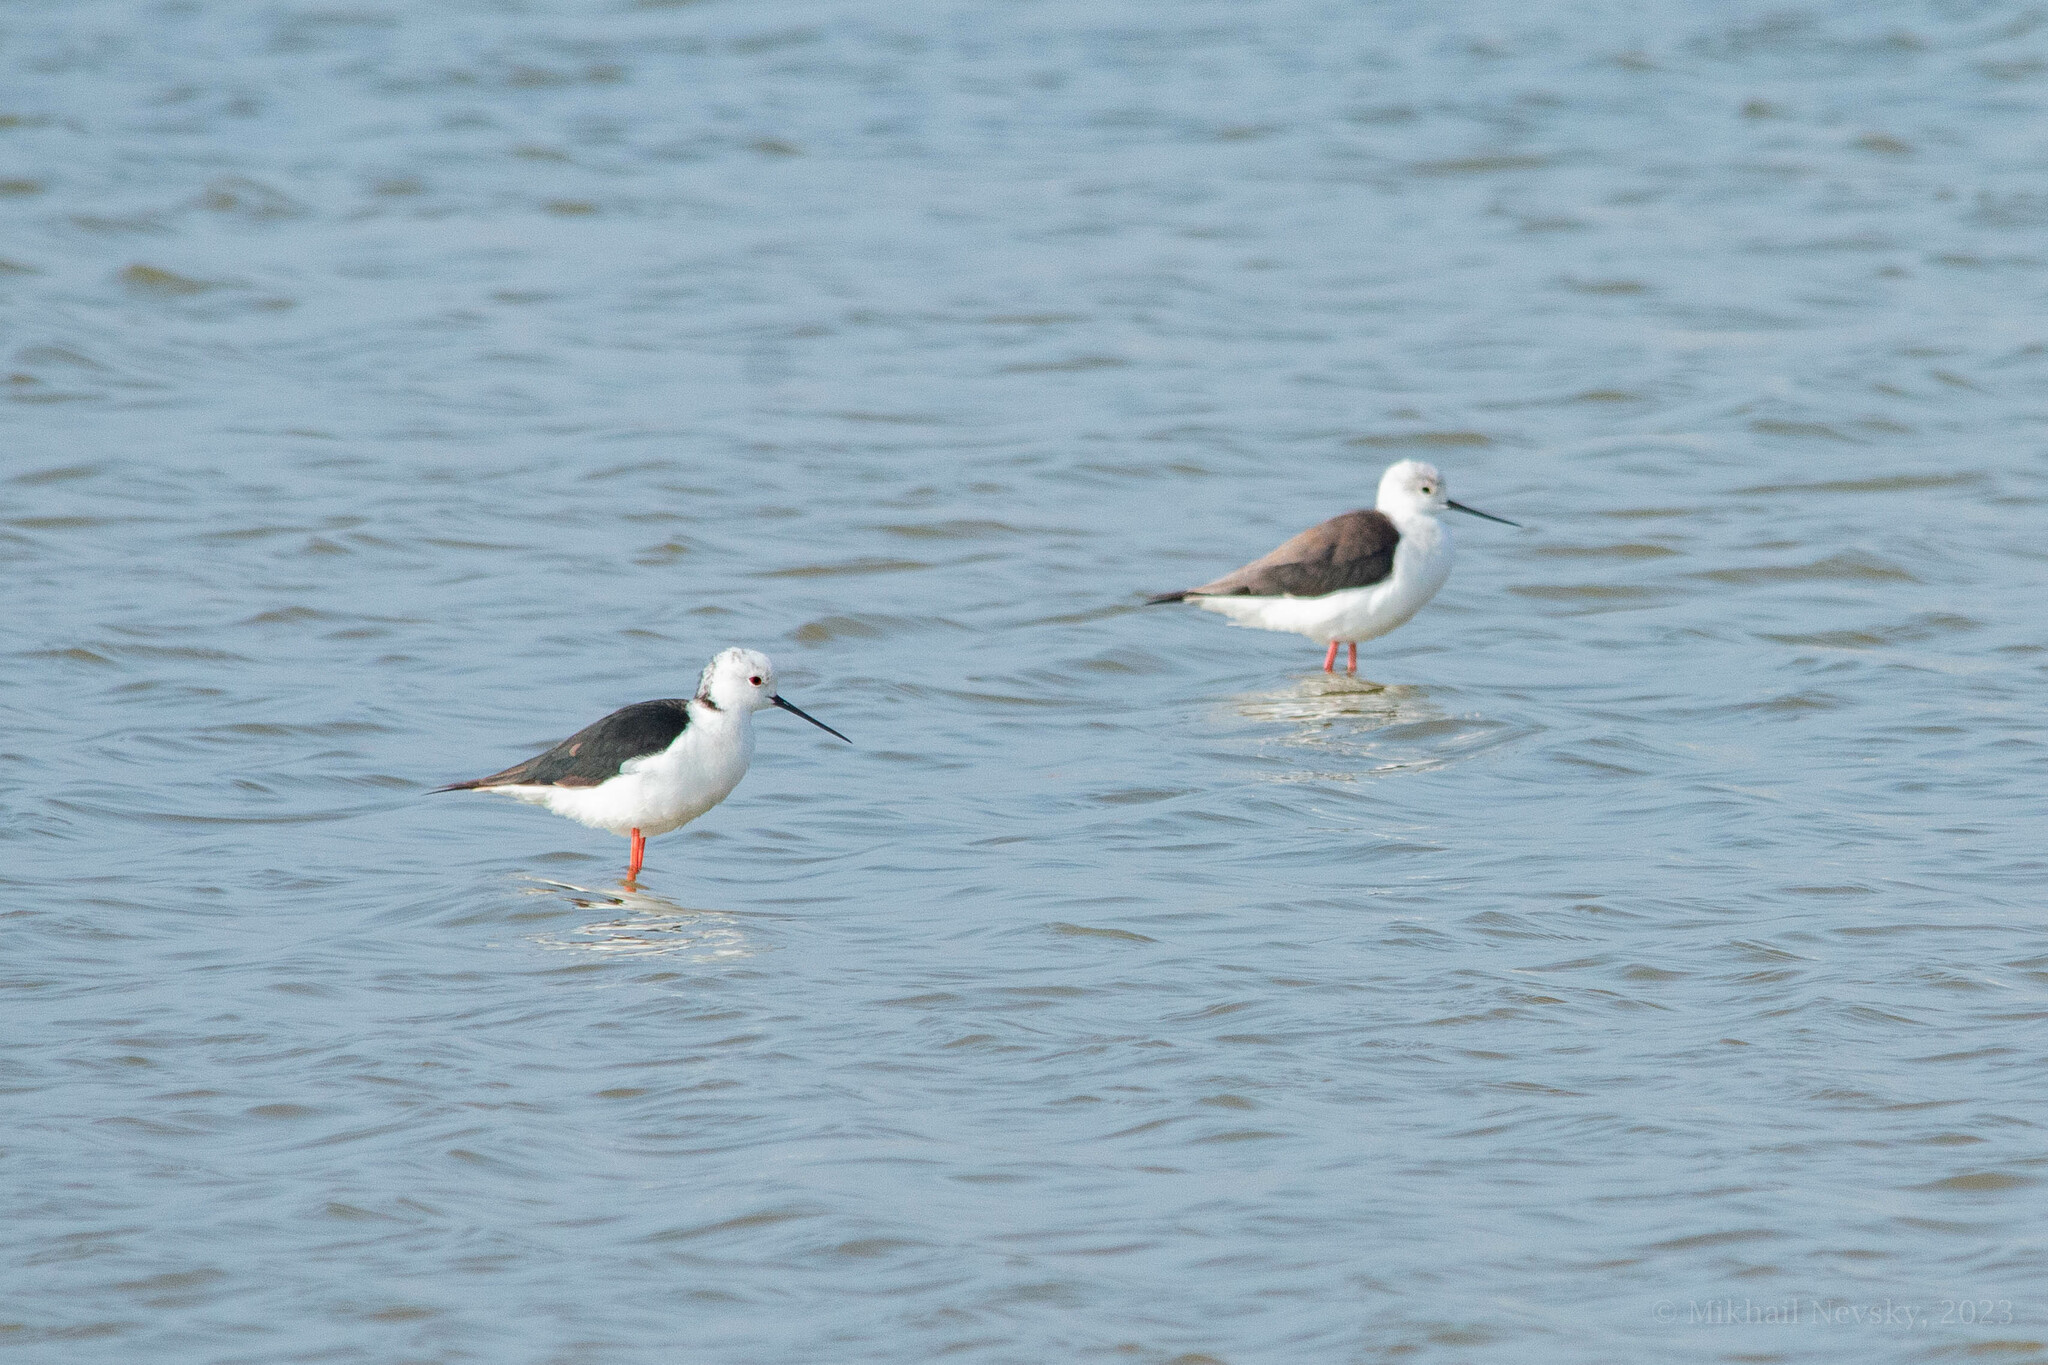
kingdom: Animalia
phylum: Chordata
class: Aves
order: Charadriiformes
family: Recurvirostridae
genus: Himantopus
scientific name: Himantopus himantopus
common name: Black-winged stilt
